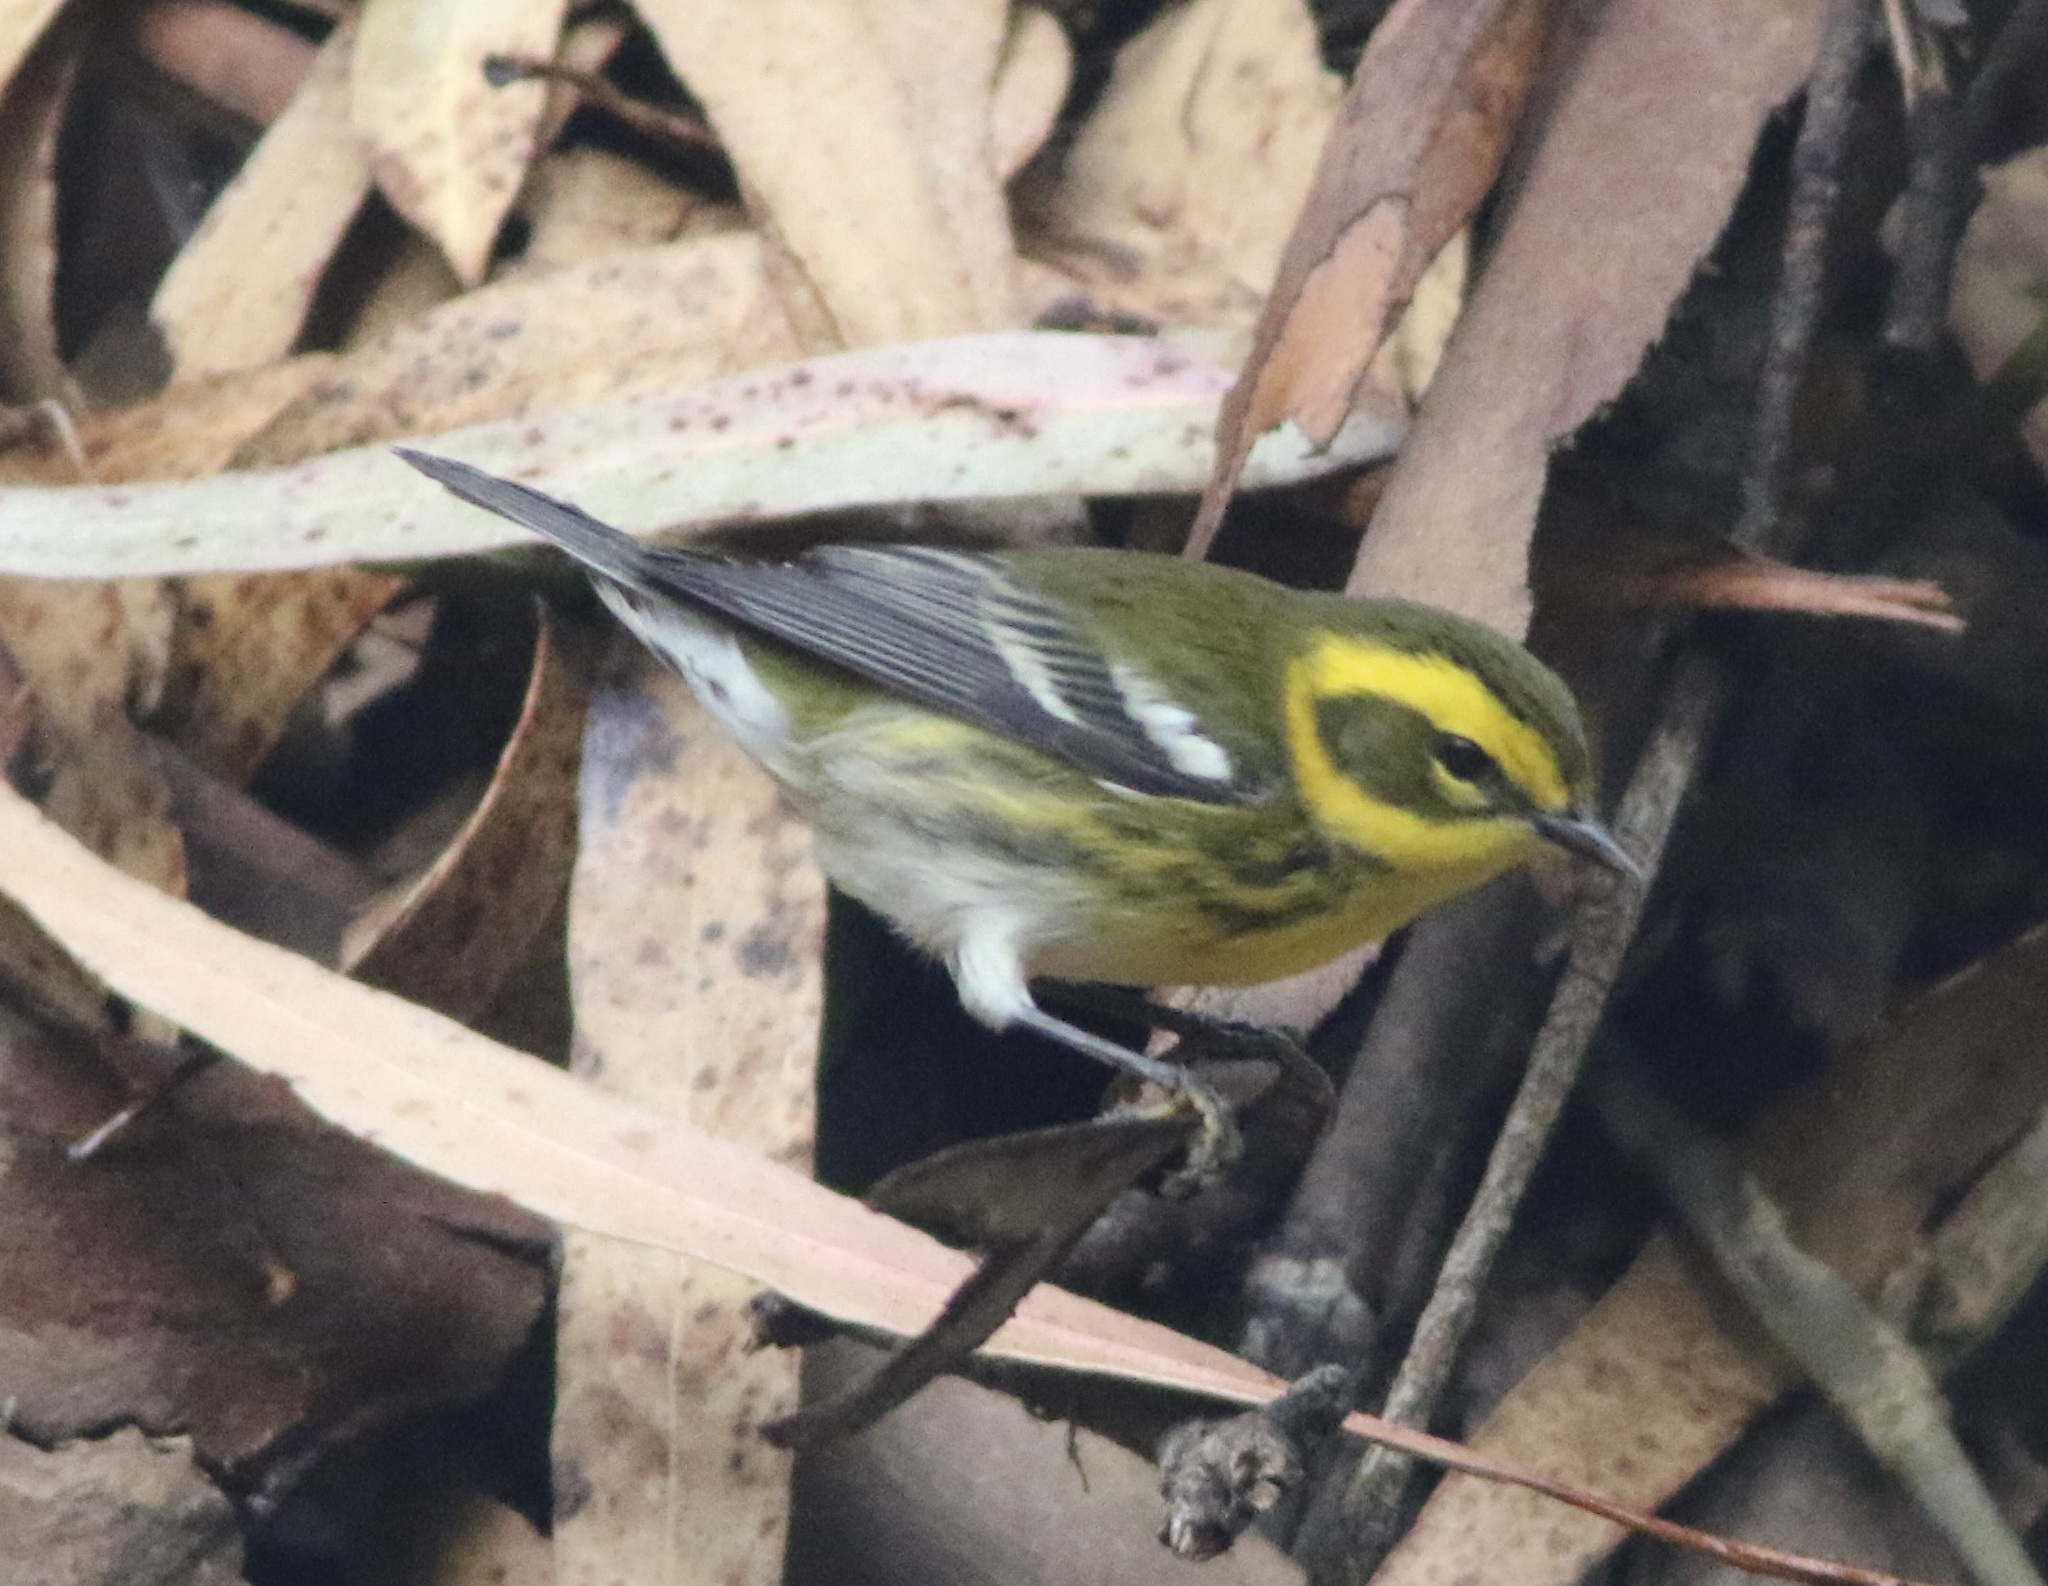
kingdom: Animalia
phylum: Chordata
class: Aves
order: Passeriformes
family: Parulidae
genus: Setophaga
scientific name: Setophaga townsendi
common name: Townsend's warbler
